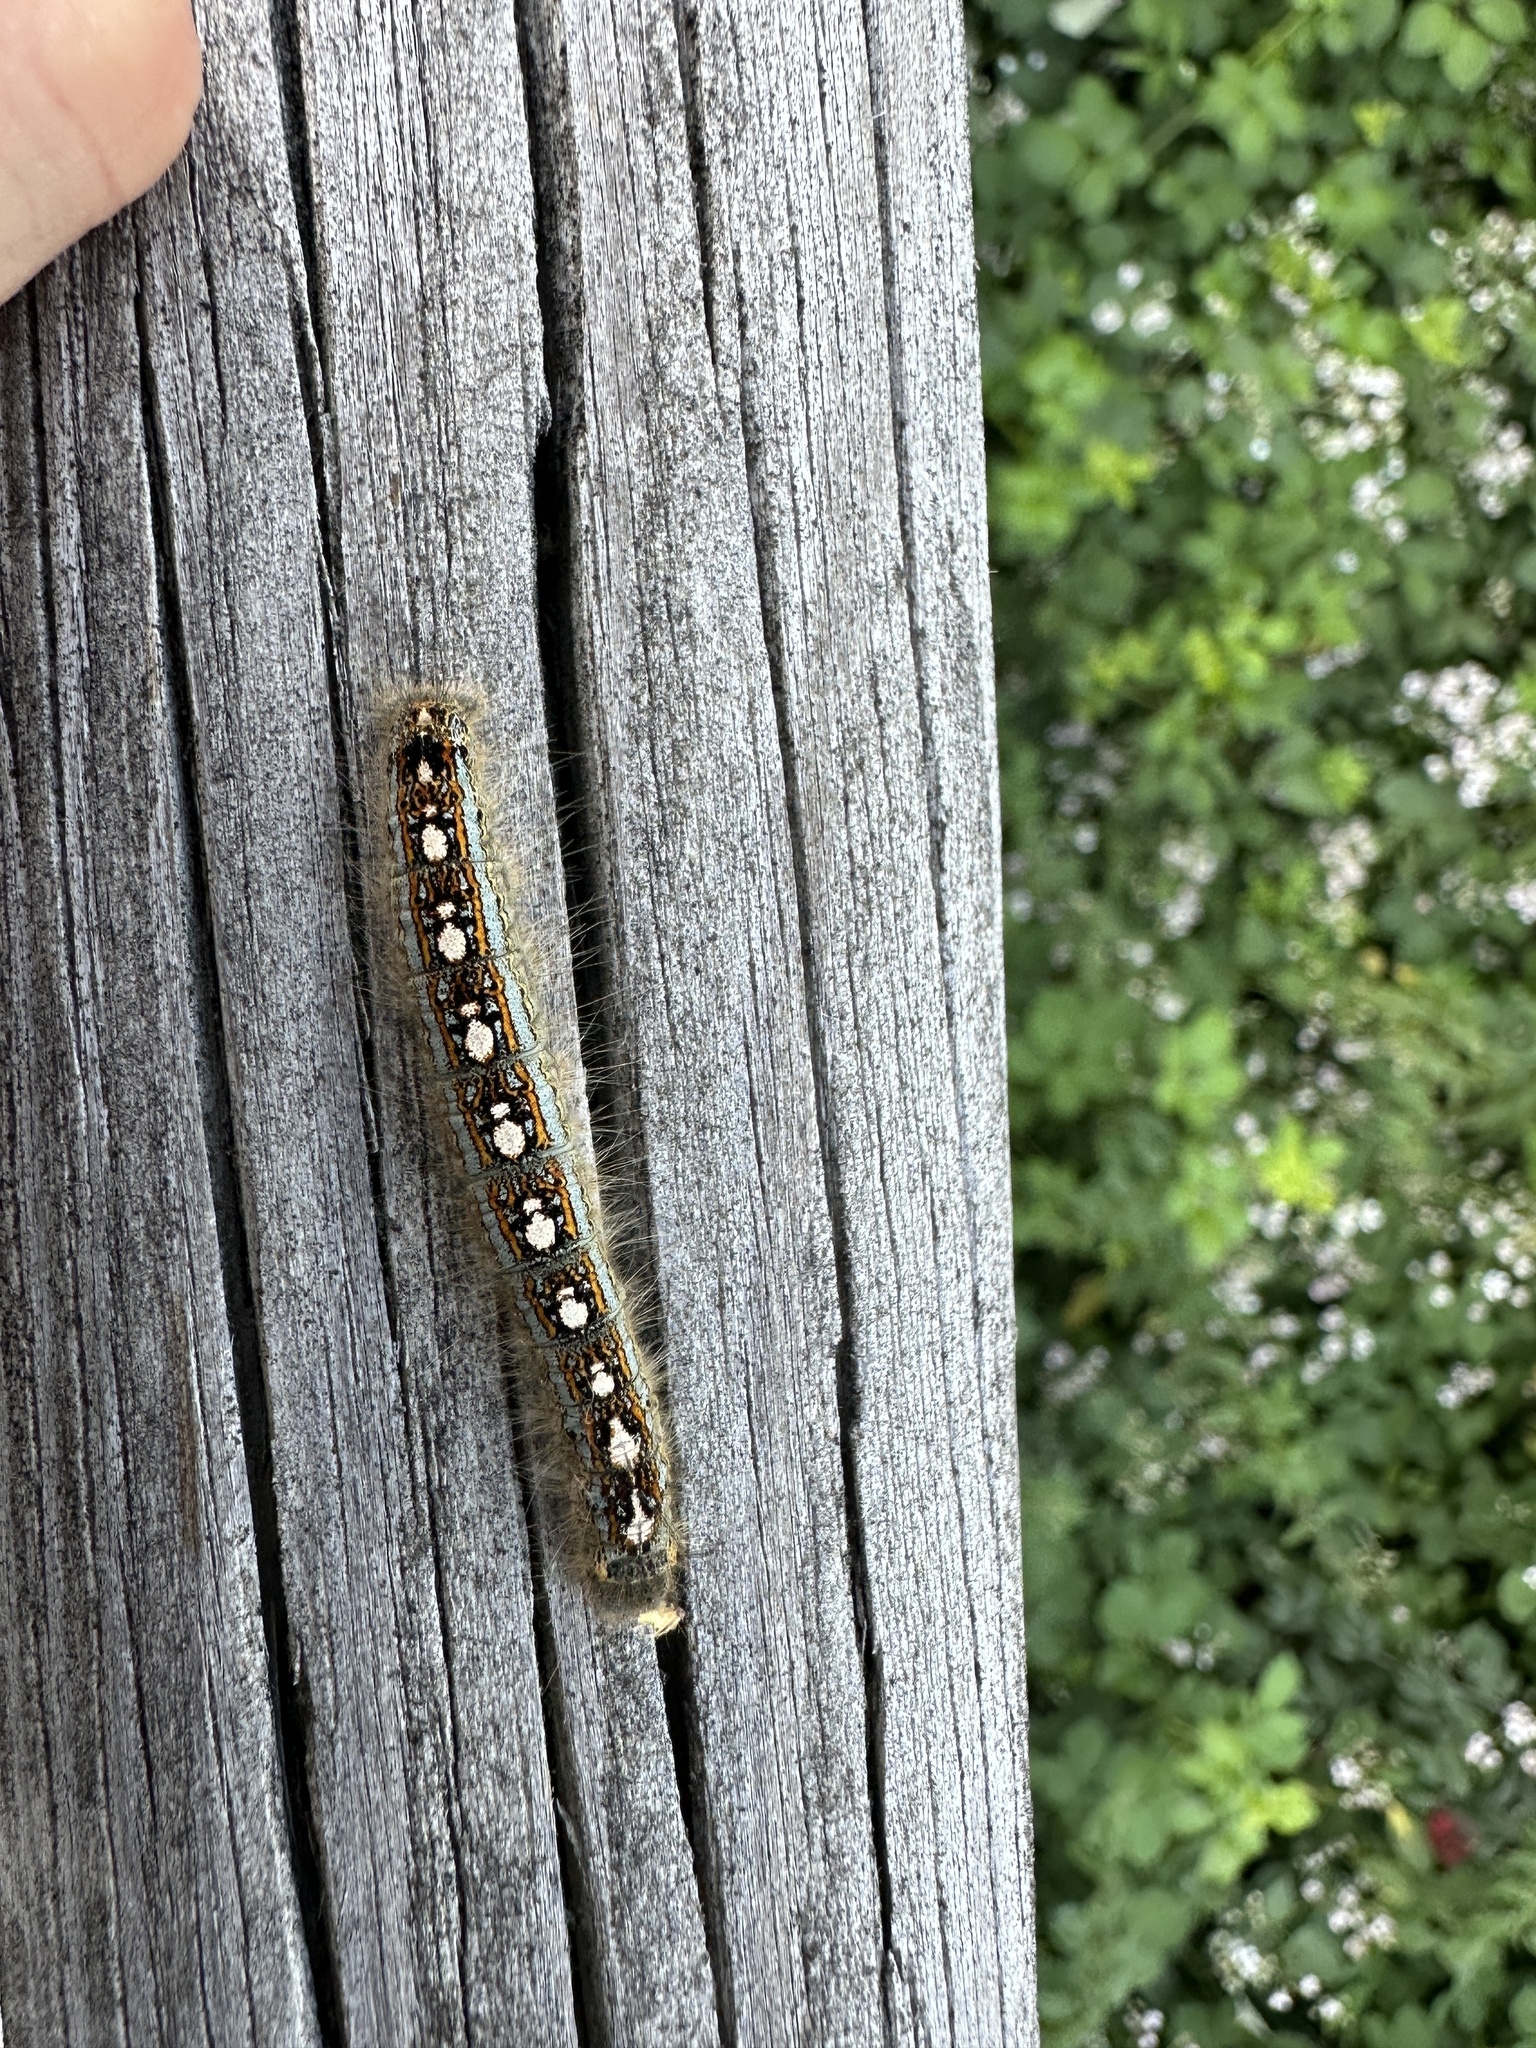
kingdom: Animalia
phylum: Arthropoda
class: Insecta
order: Lepidoptera
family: Lasiocampidae
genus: Malacosoma
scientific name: Malacosoma disstria
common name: Forest tent caterpillar
